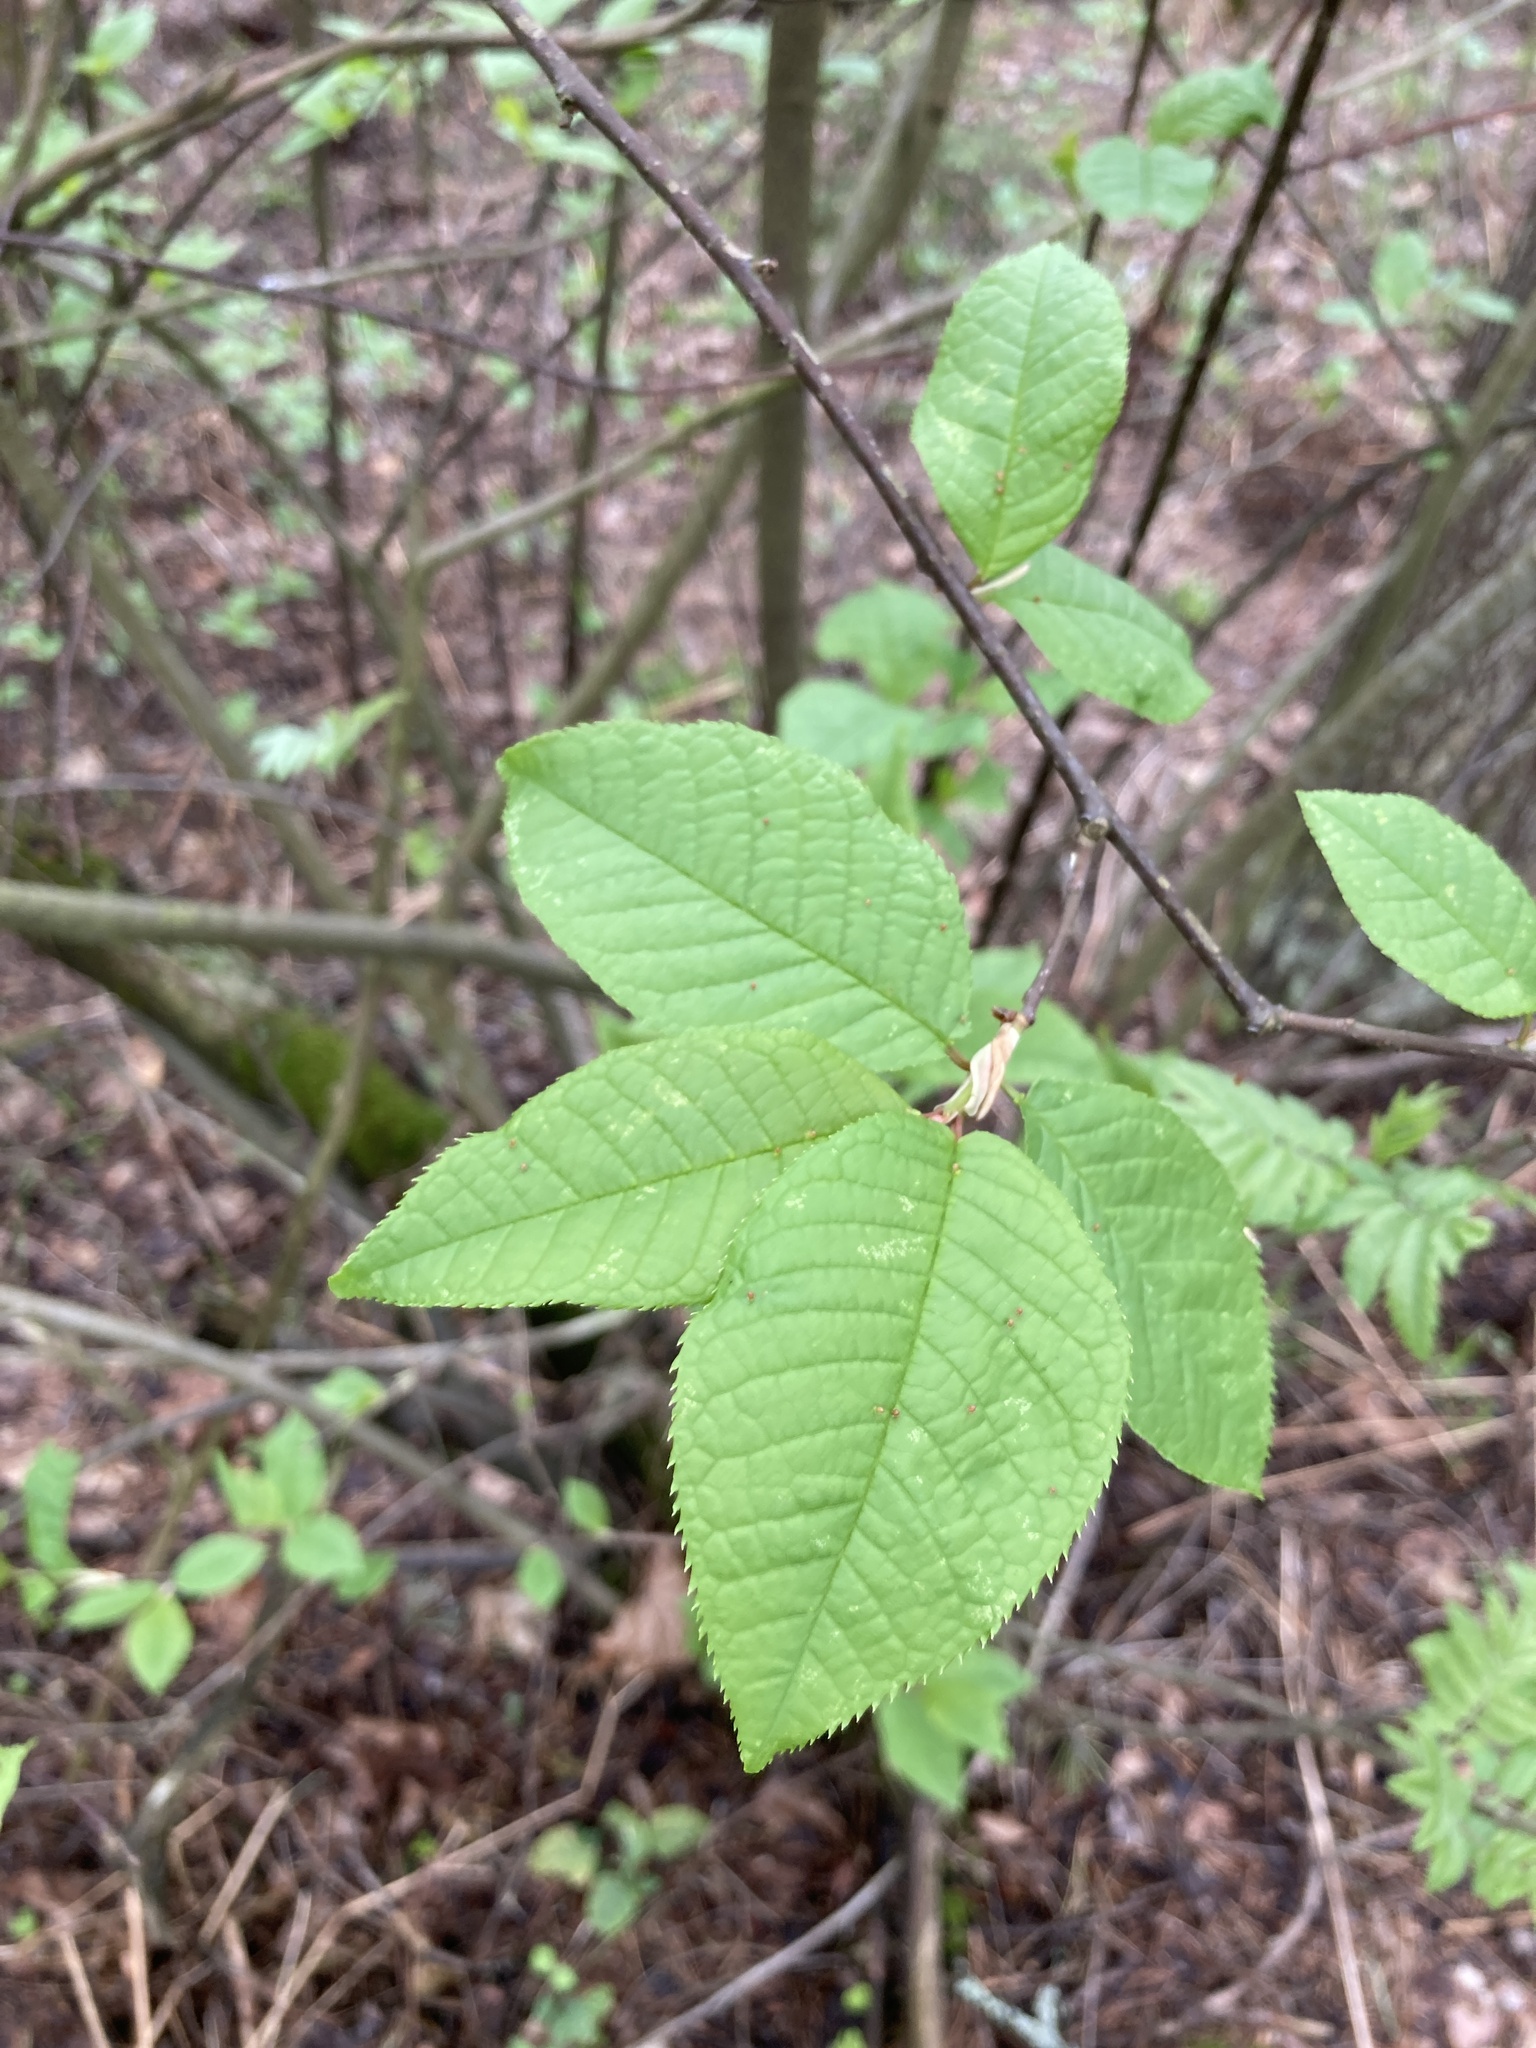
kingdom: Plantae
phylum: Tracheophyta
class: Magnoliopsida
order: Rosales
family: Rosaceae
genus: Prunus
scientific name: Prunus padus
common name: Bird cherry
